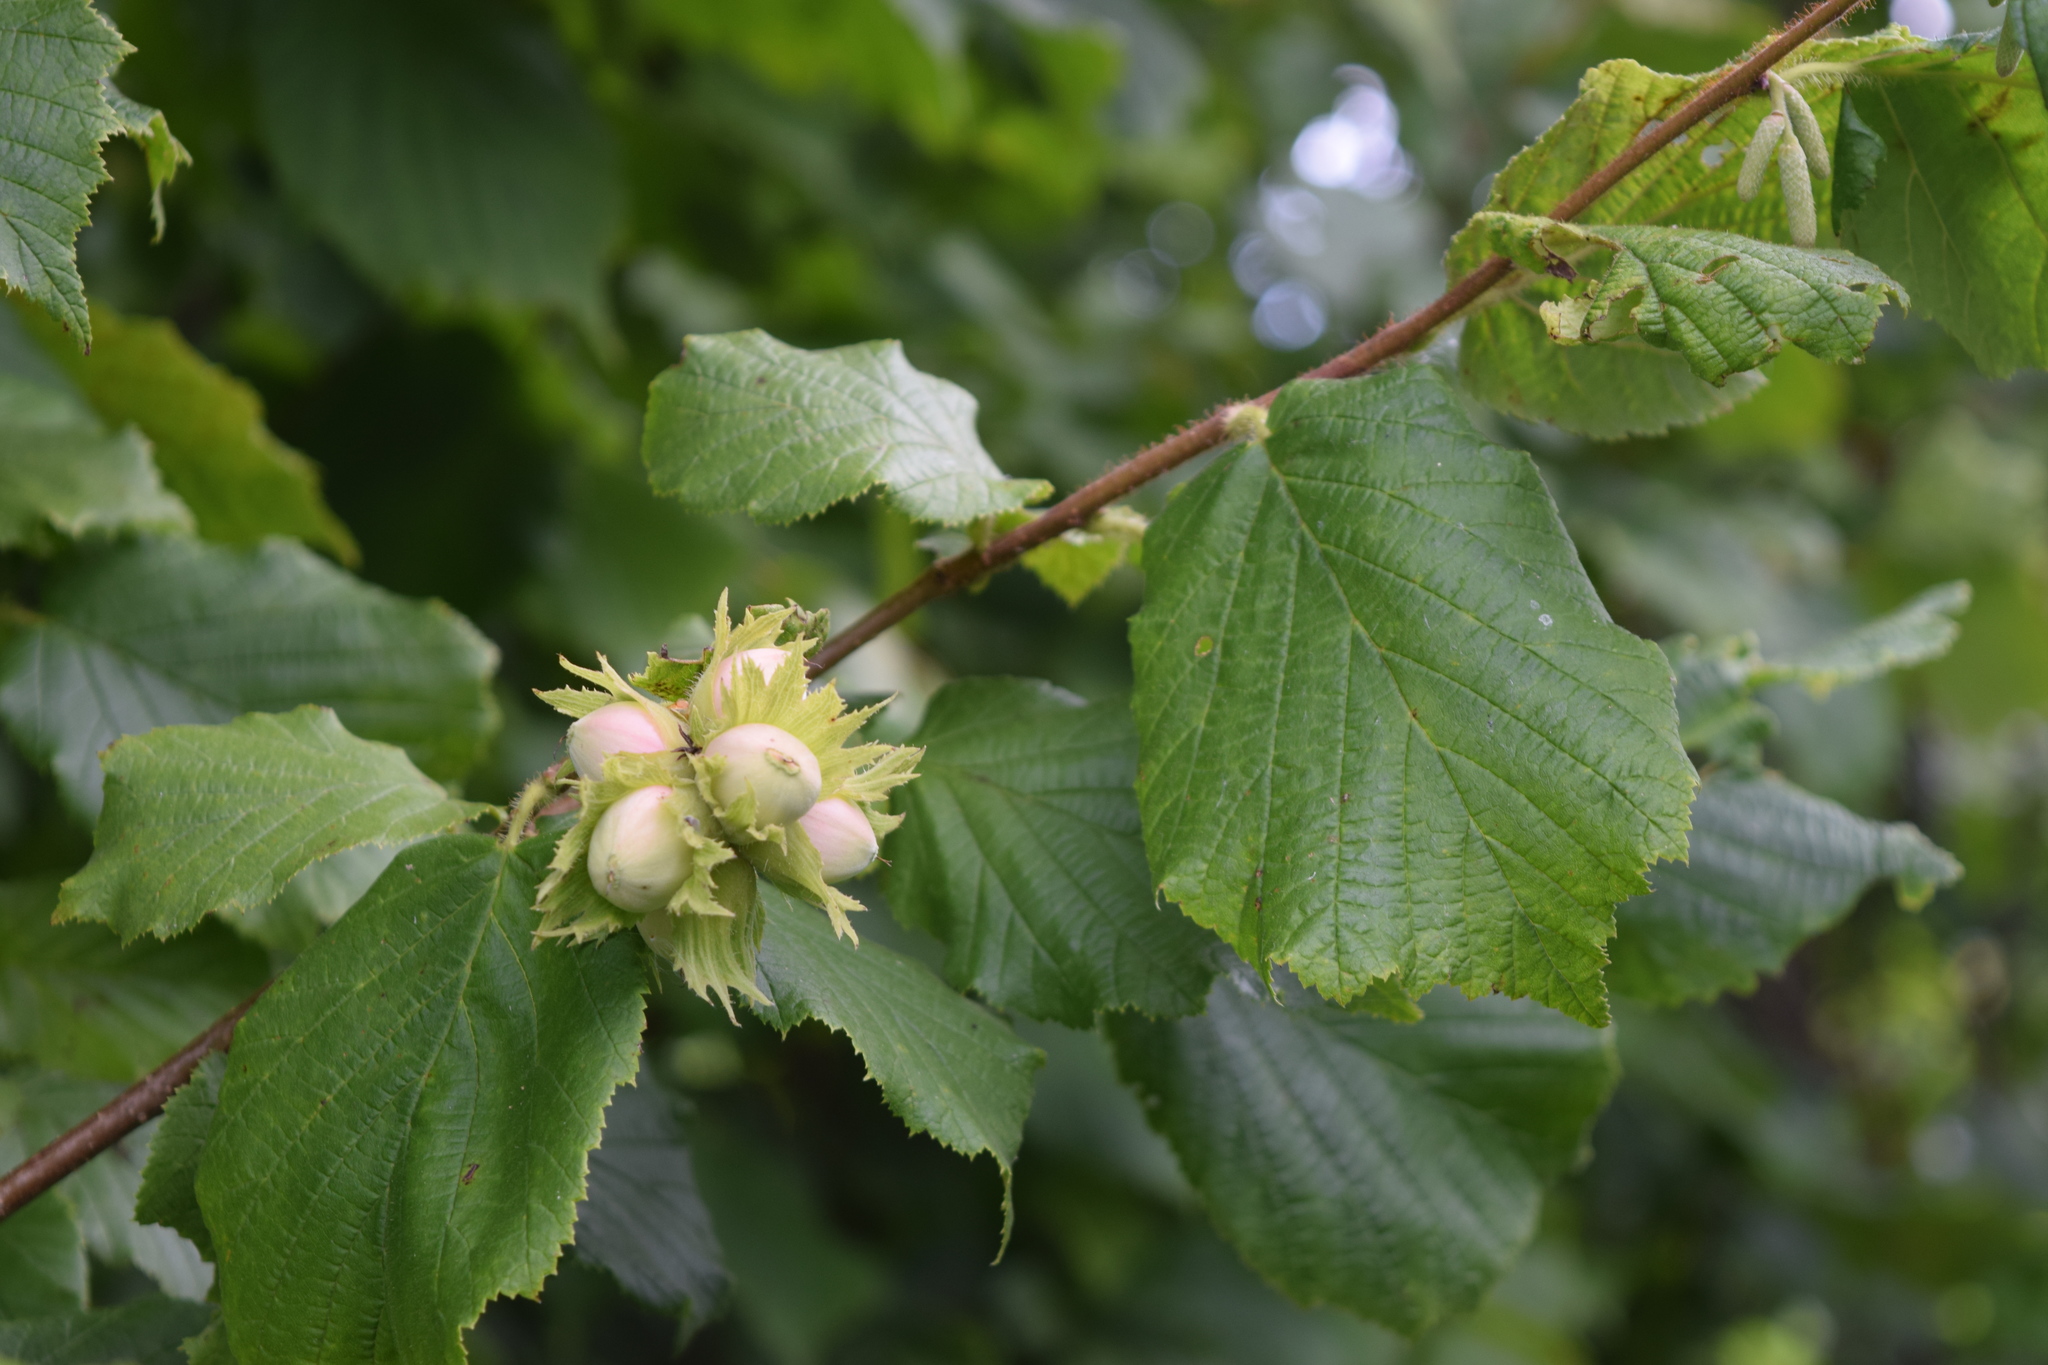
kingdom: Plantae
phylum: Tracheophyta
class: Magnoliopsida
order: Fagales
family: Betulaceae
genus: Corylus
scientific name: Corylus avellana
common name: European hazel
